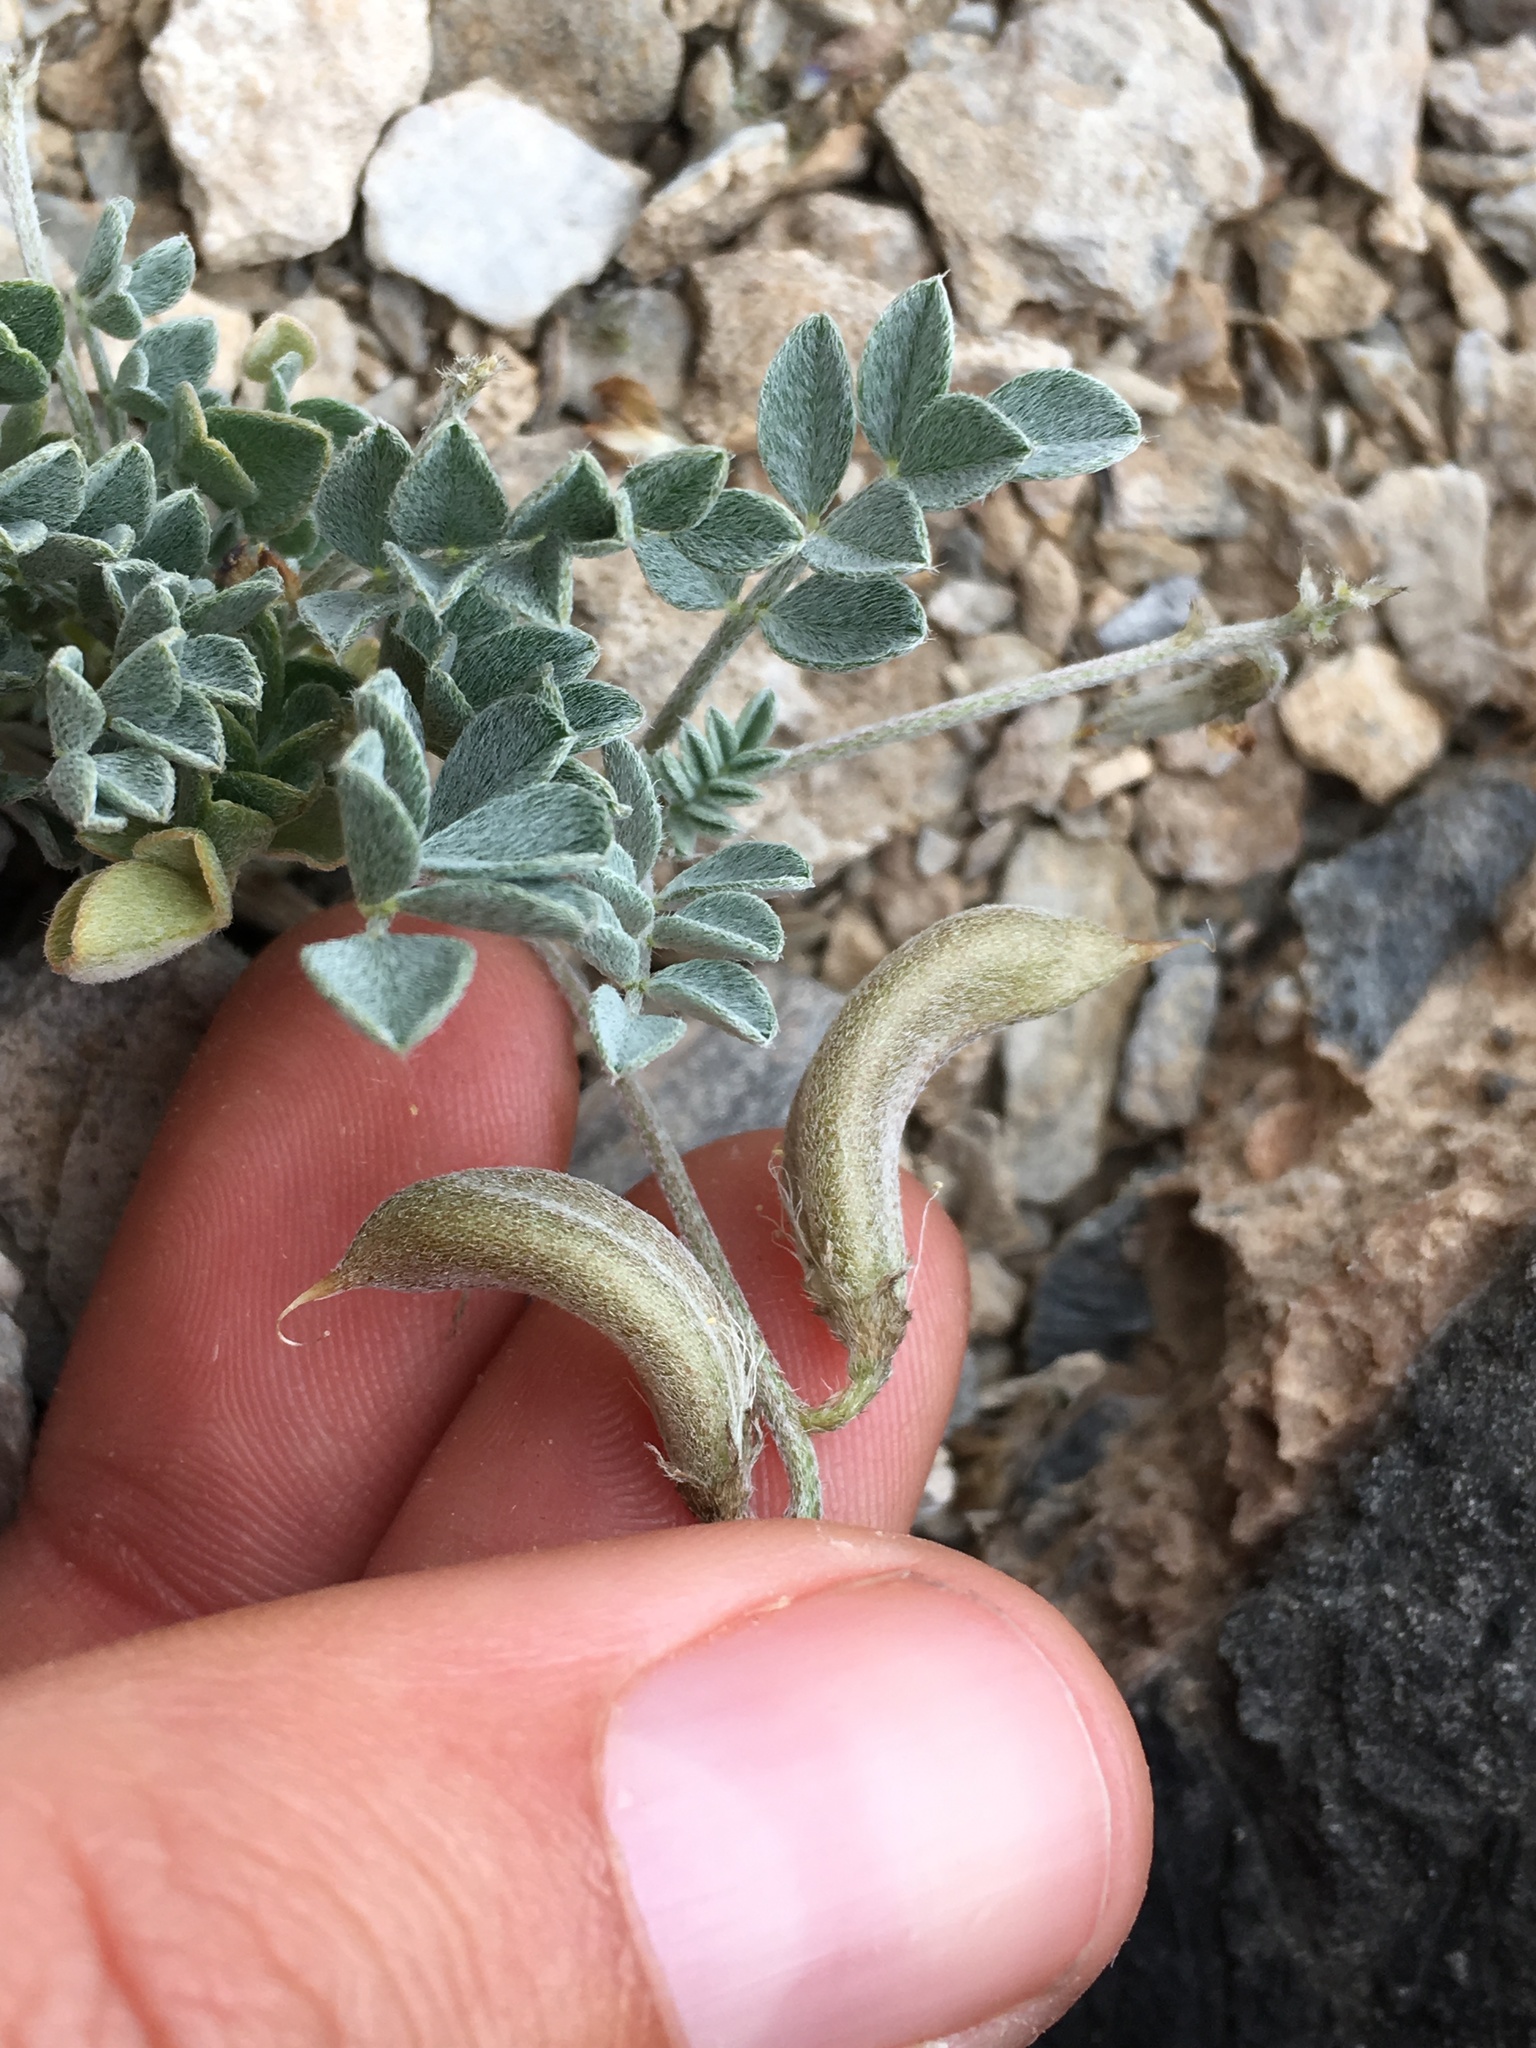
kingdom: Plantae
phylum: Tracheophyta
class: Magnoliopsida
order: Fabales
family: Fabaceae
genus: Astragalus
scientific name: Astragalus mohavensis
